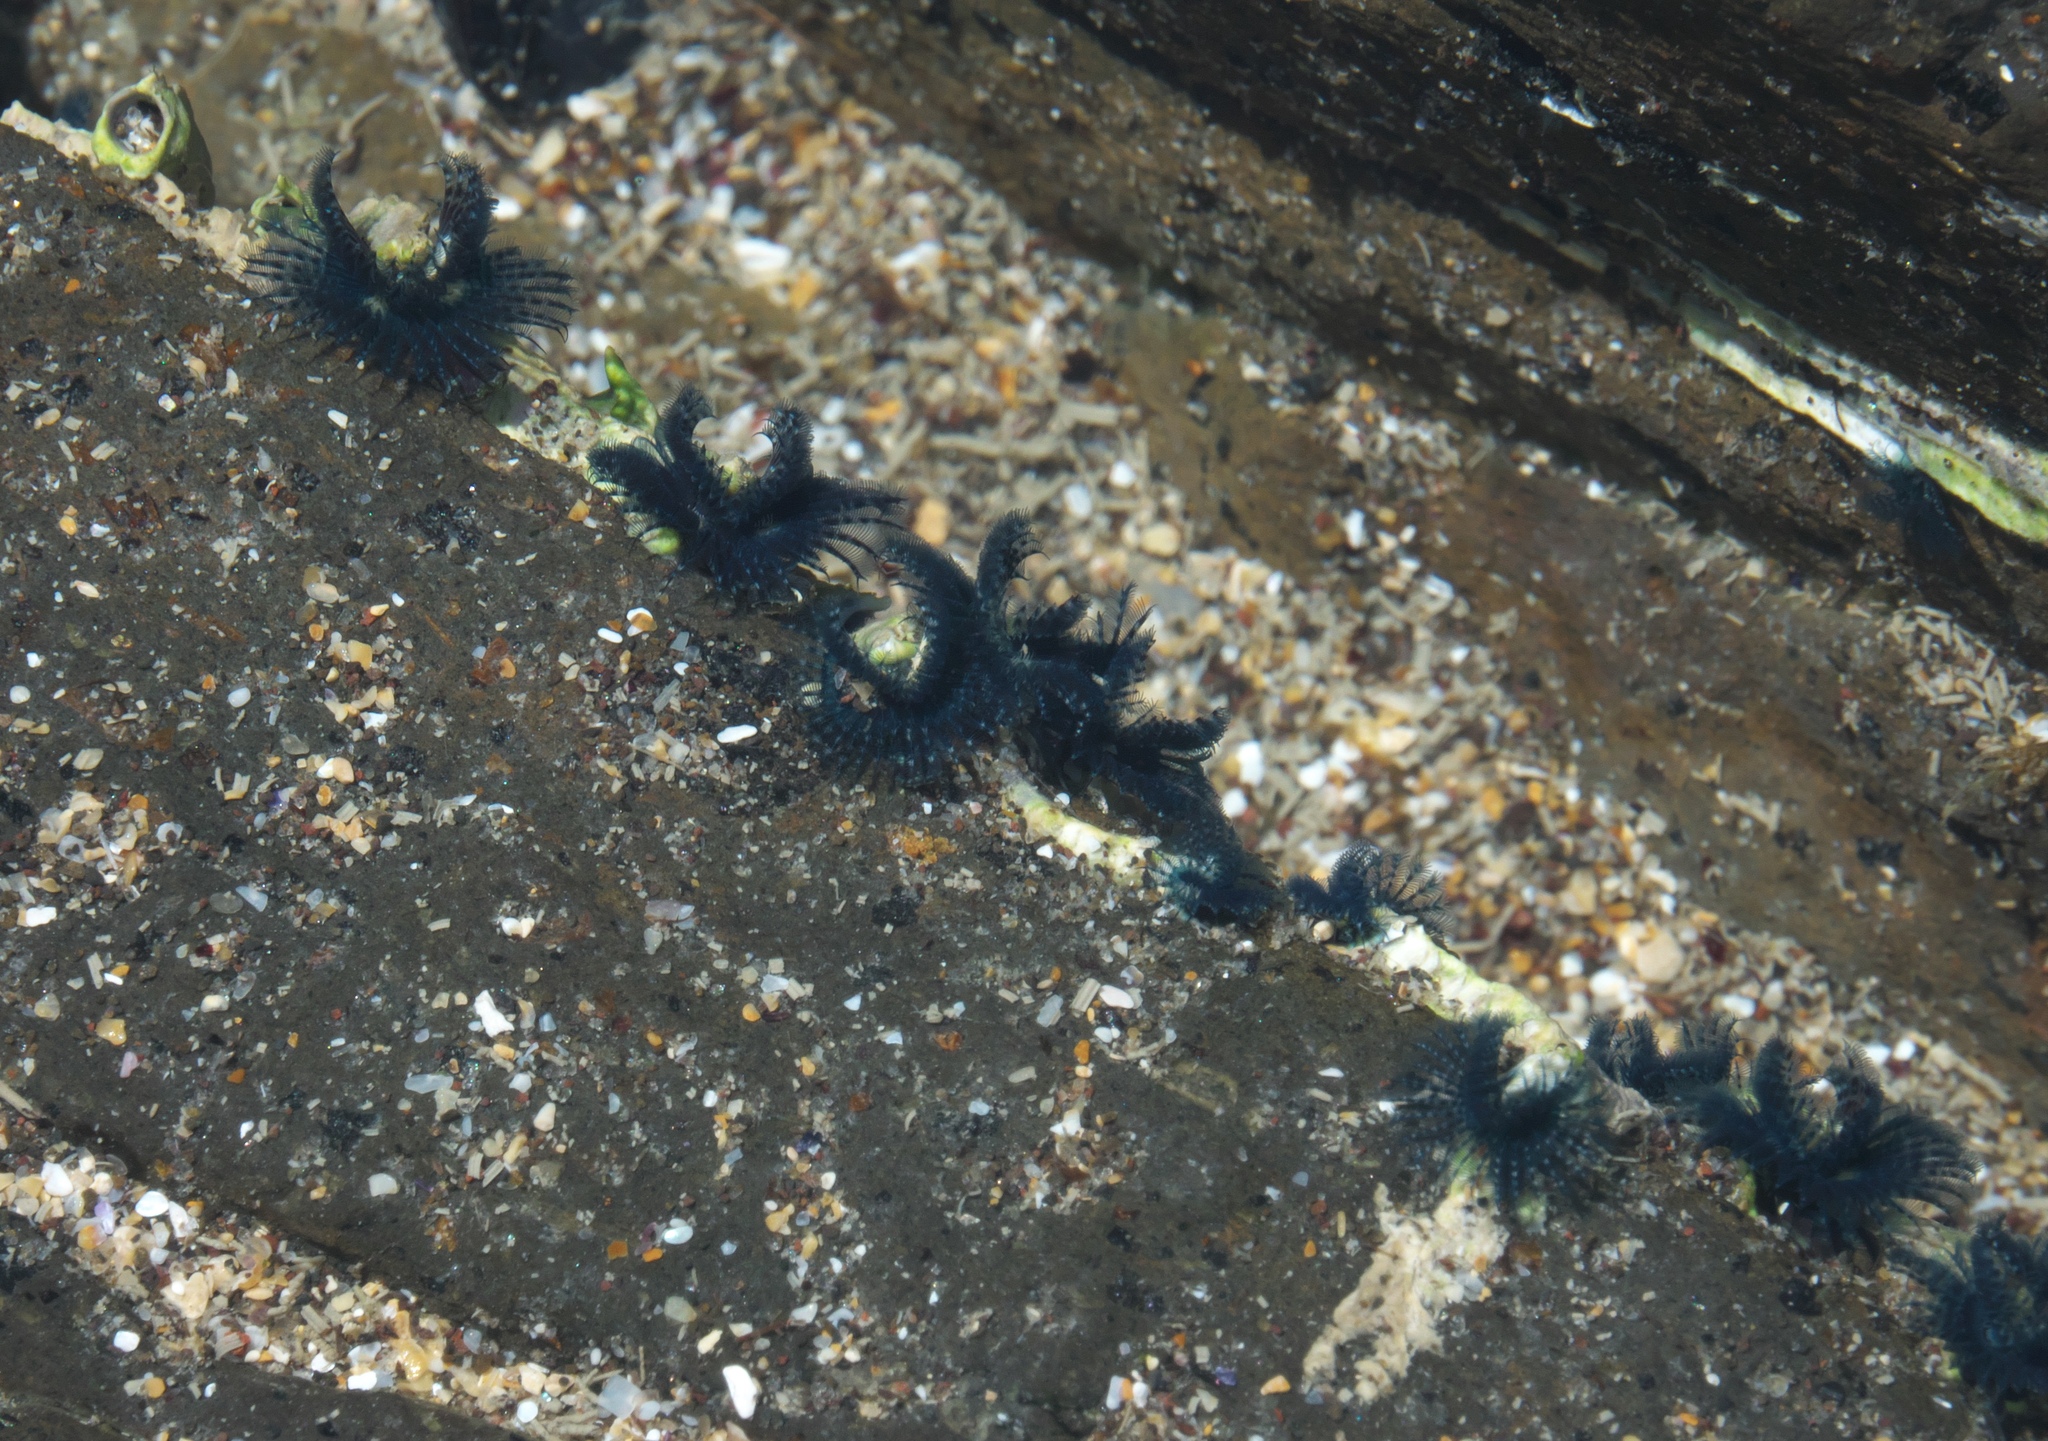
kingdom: Animalia
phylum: Annelida
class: Polychaeta
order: Sabellida
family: Serpulidae
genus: Spirobranchus
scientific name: Spirobranchus cariniferus
